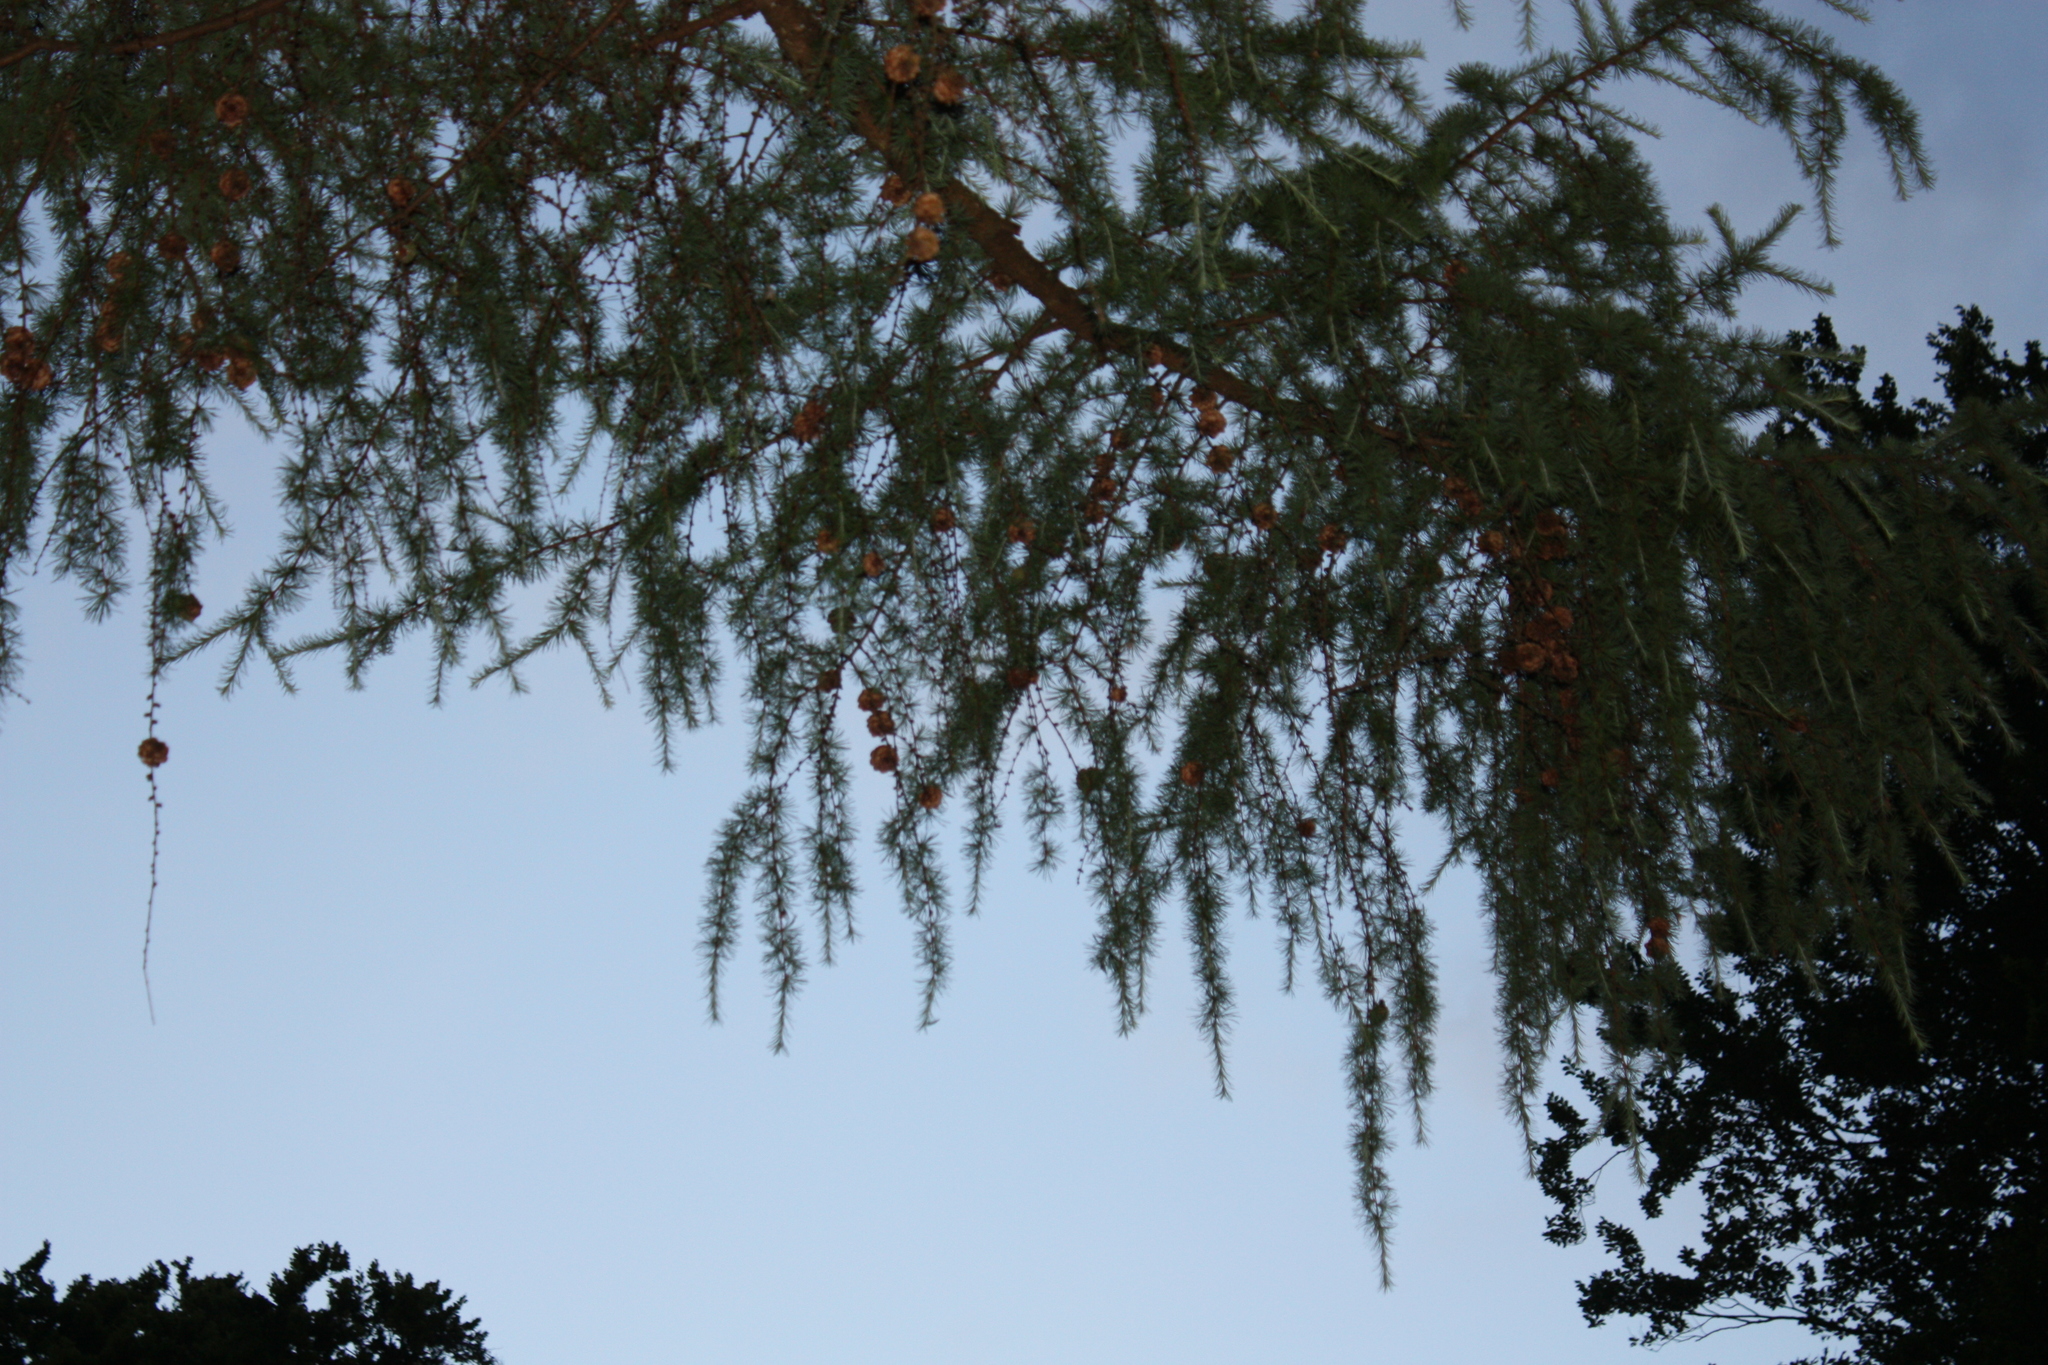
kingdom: Plantae
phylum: Tracheophyta
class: Pinopsida
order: Pinales
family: Pinaceae
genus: Larix
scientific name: Larix decidua
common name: European larch
